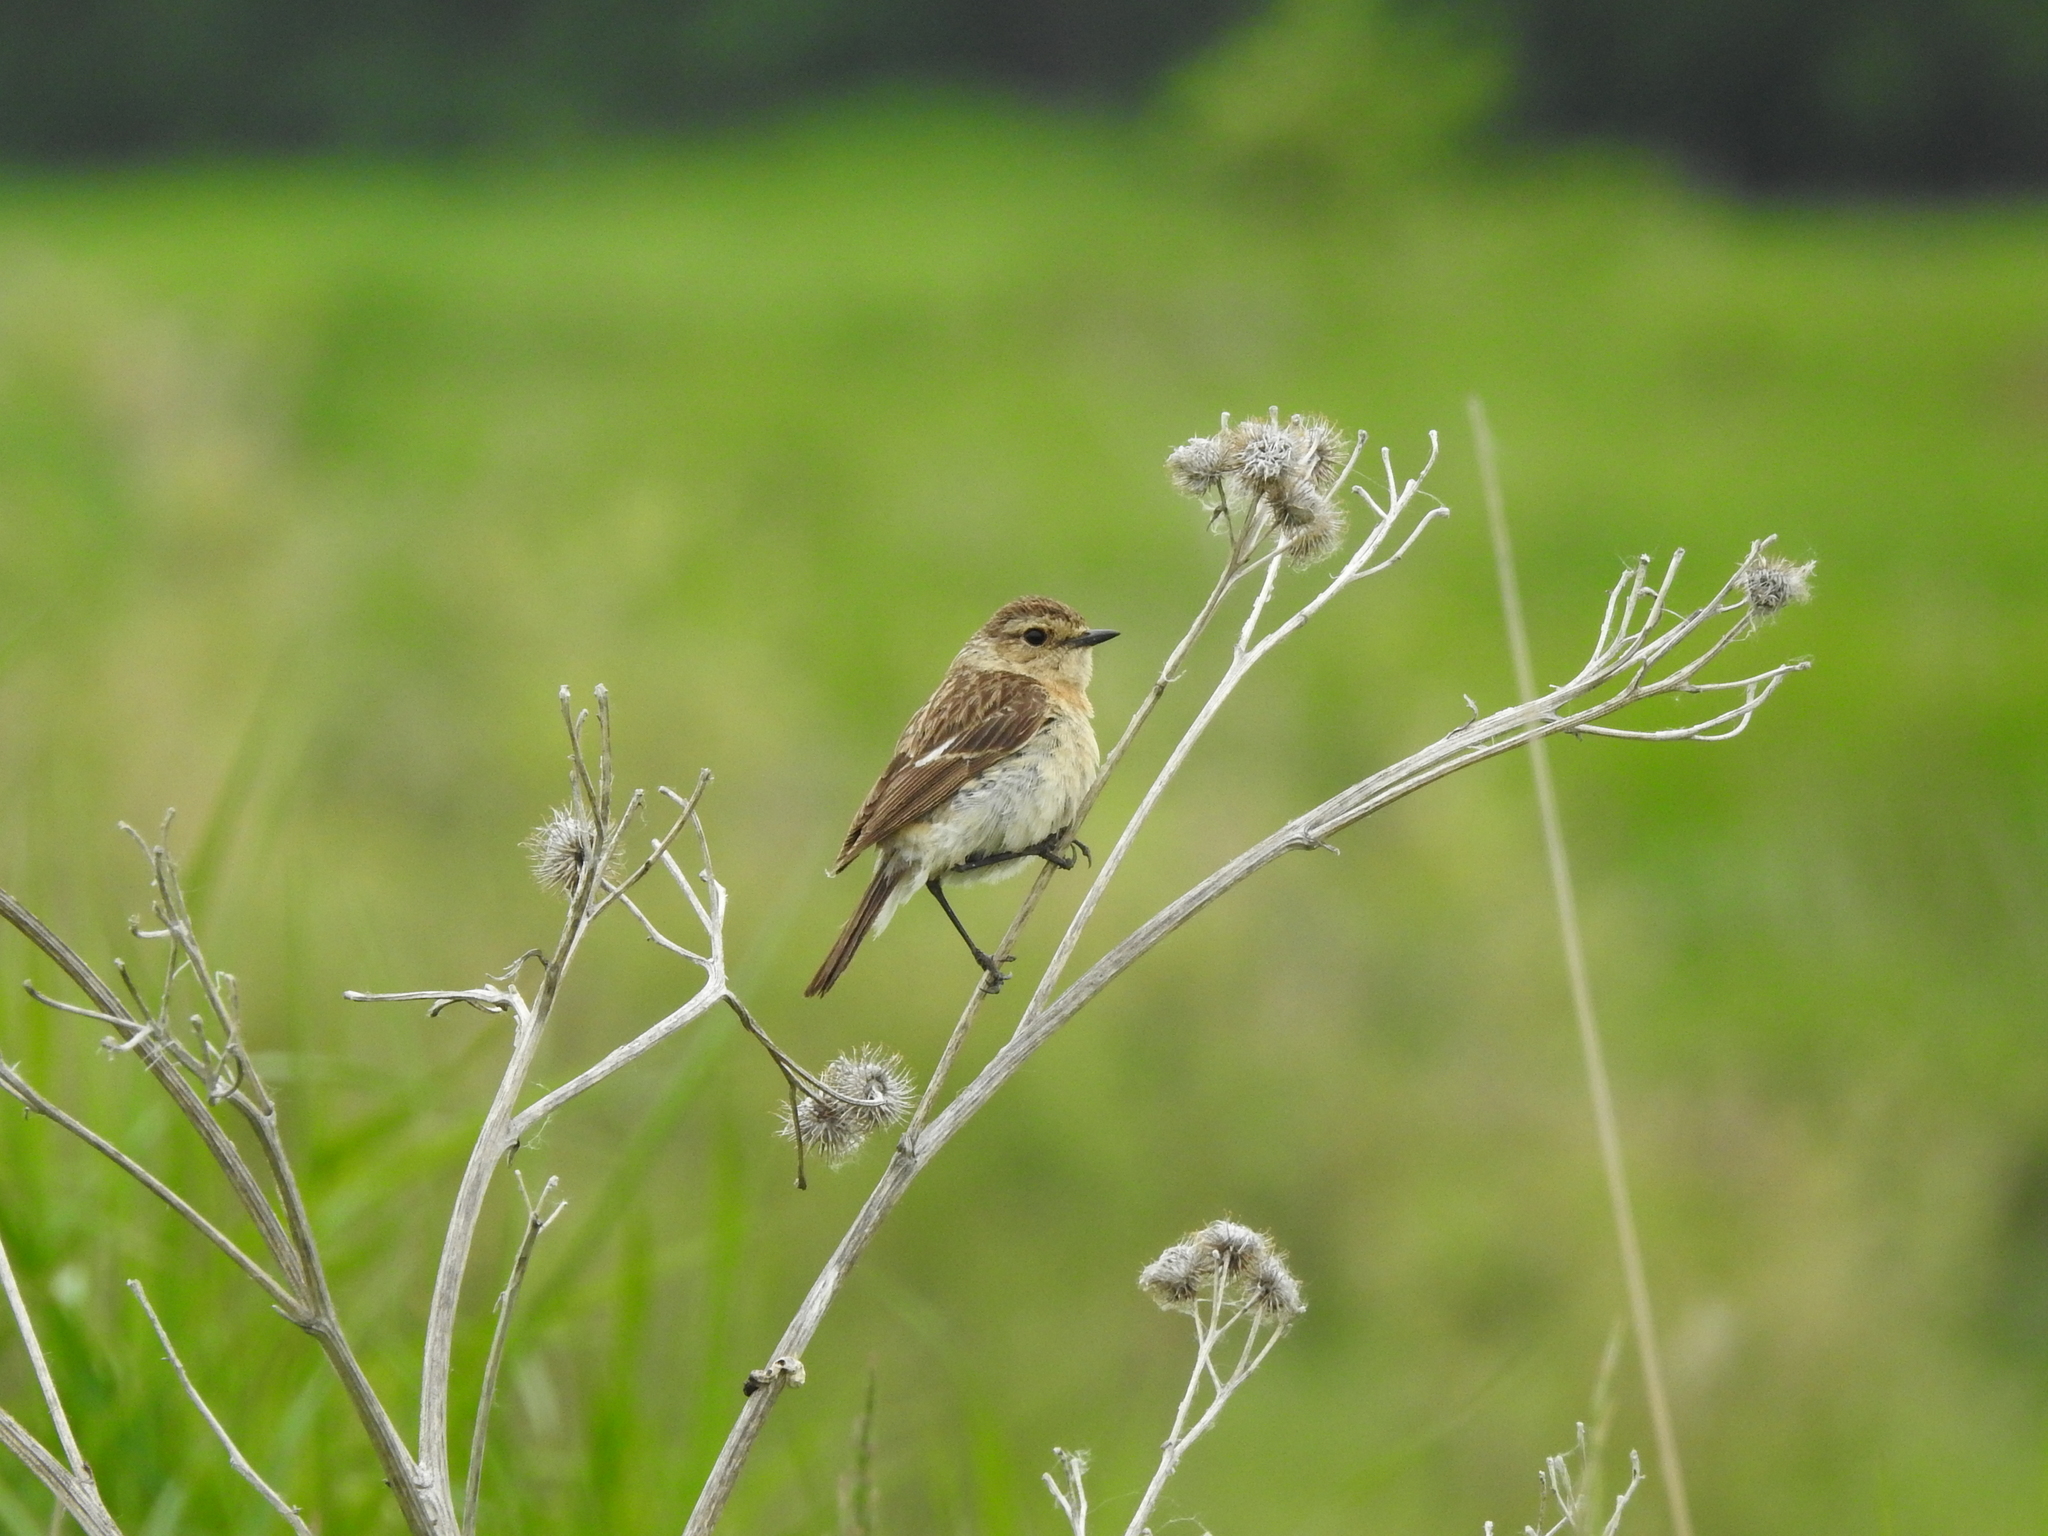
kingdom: Animalia
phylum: Chordata
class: Aves
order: Passeriformes
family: Muscicapidae
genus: Saxicola
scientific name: Saxicola maurus
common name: Siberian stonechat
